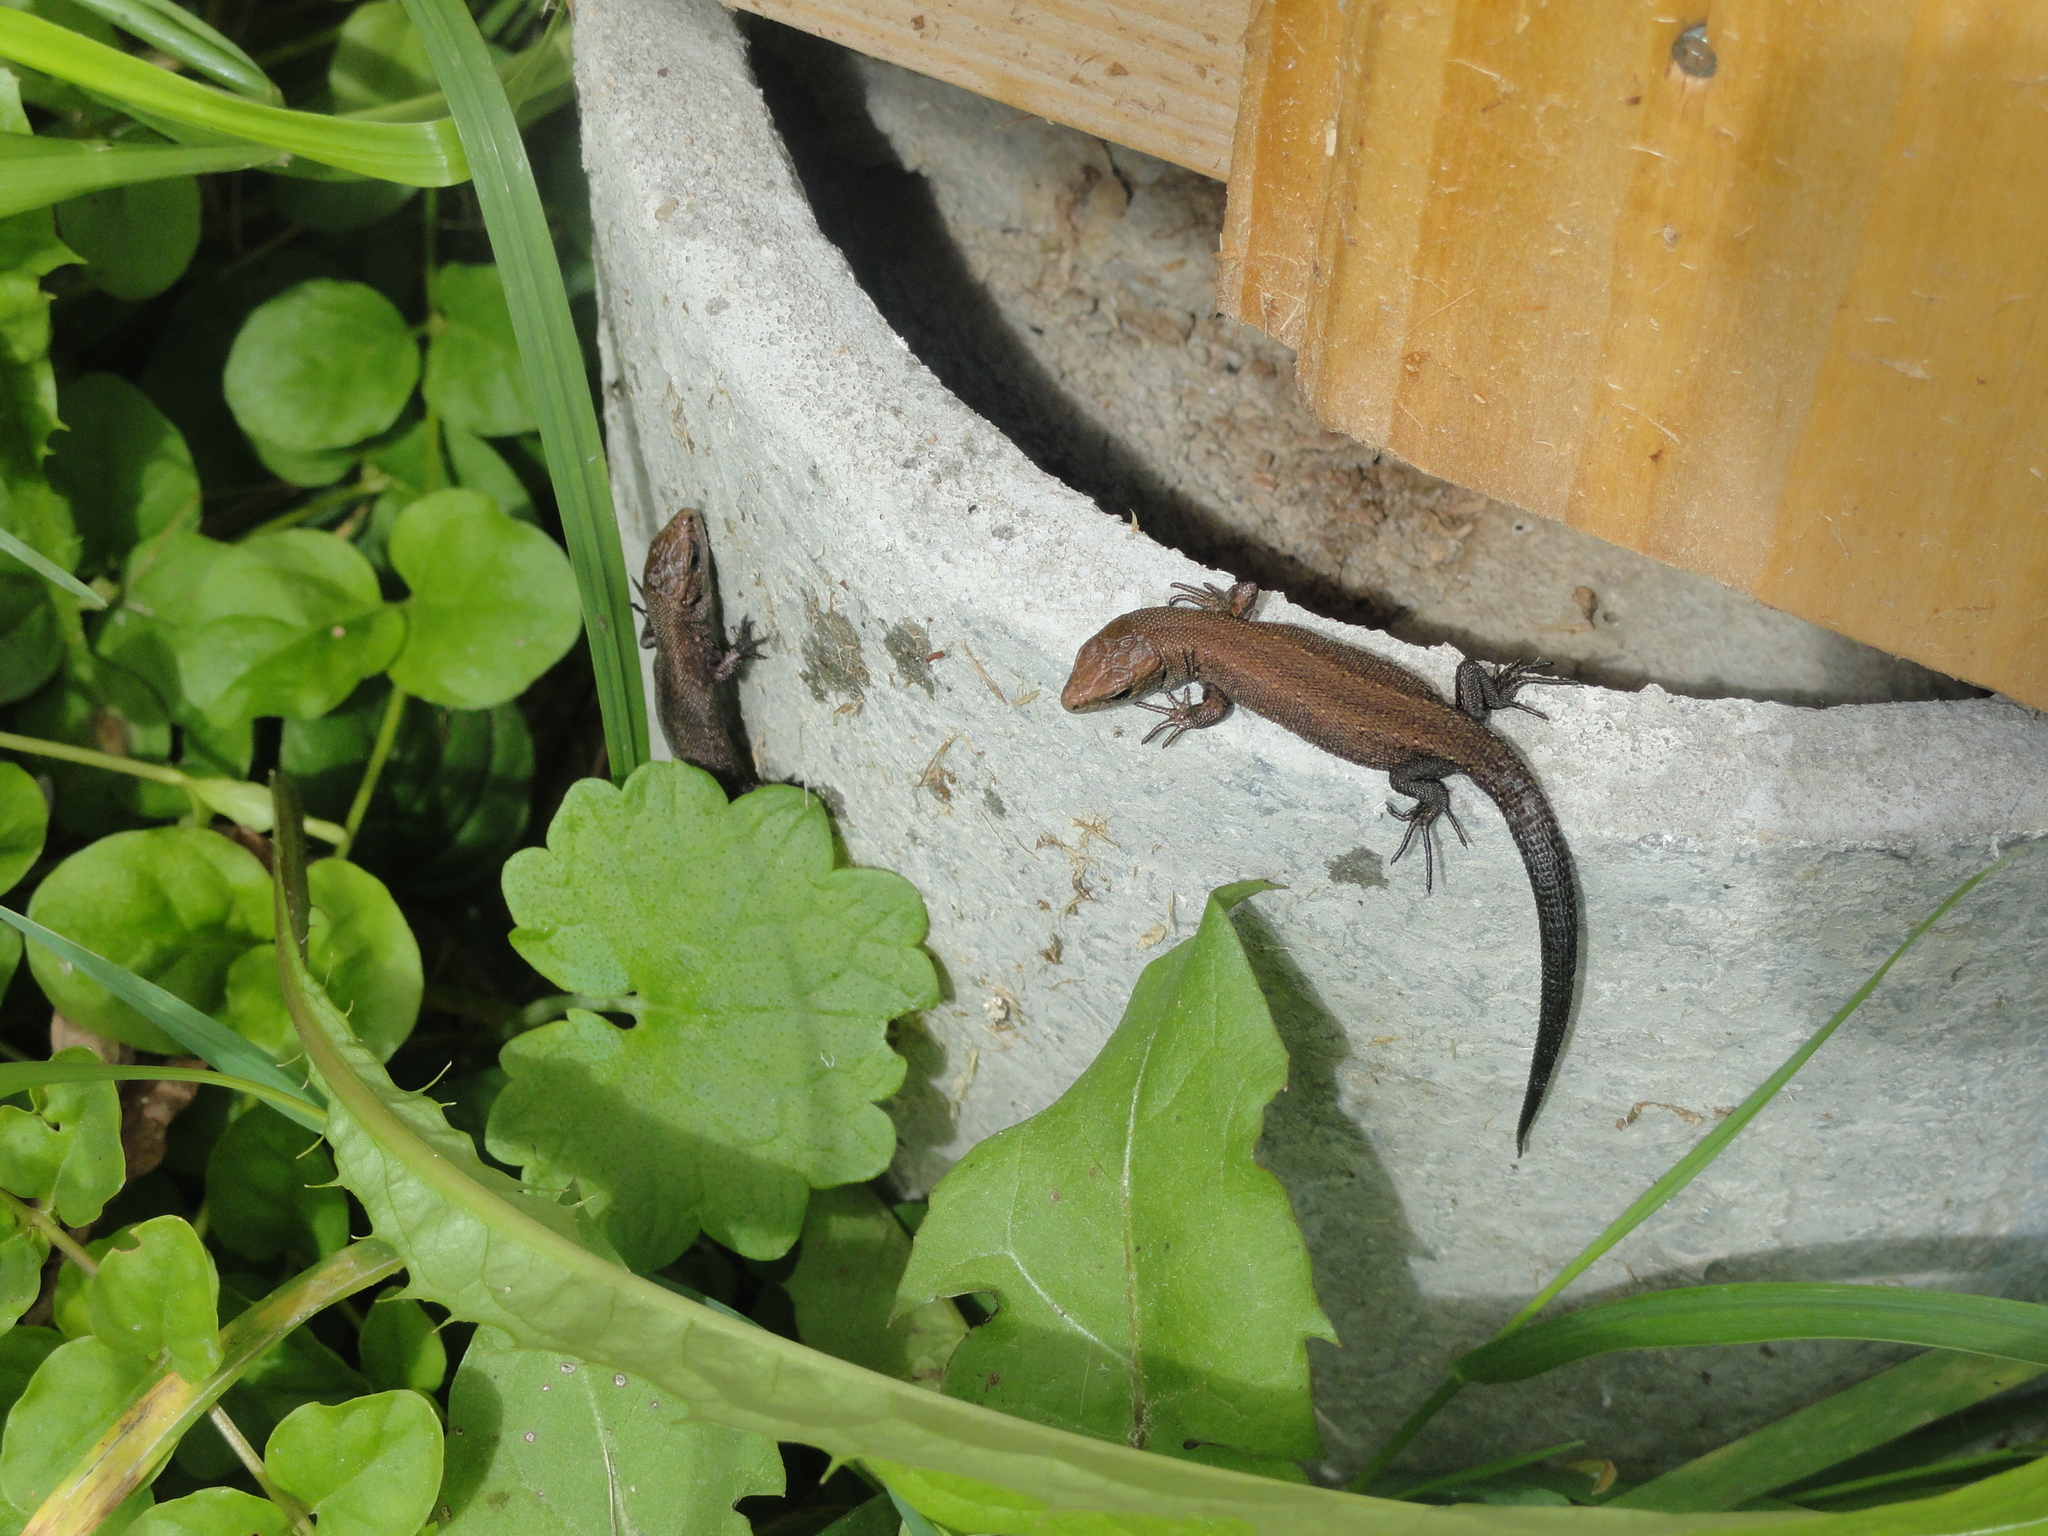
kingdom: Animalia
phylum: Chordata
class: Squamata
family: Lacertidae
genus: Zootoca
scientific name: Zootoca vivipara
